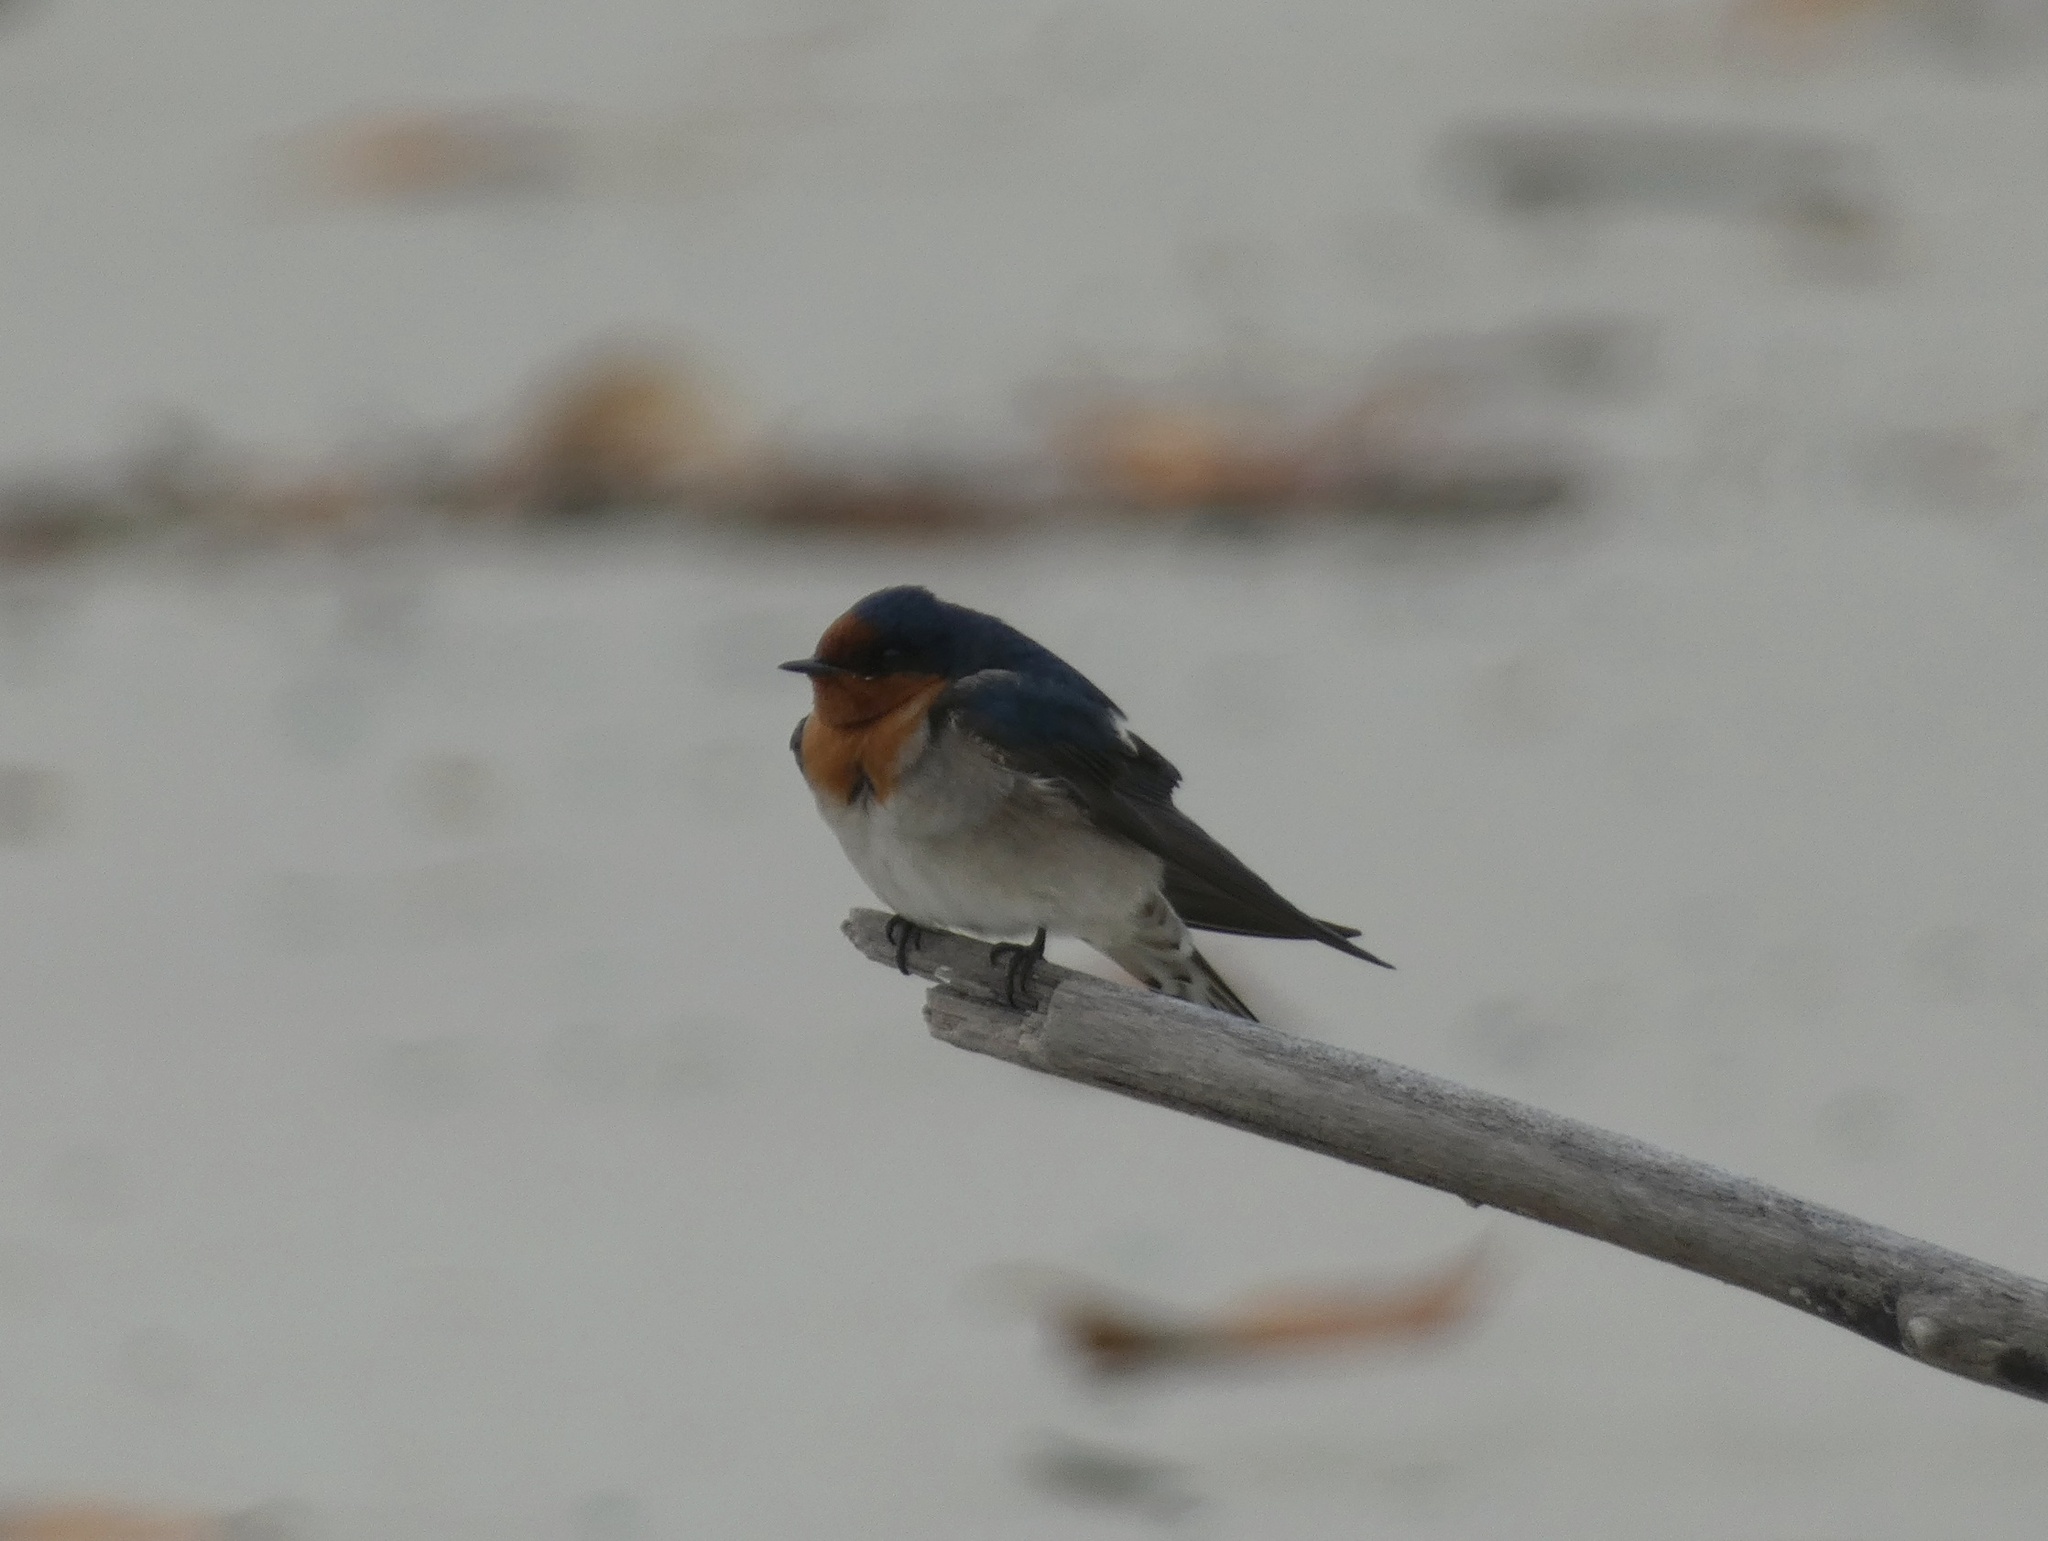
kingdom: Animalia
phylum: Chordata
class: Aves
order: Passeriformes
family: Hirundinidae
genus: Hirundo
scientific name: Hirundo neoxena
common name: Welcome swallow
